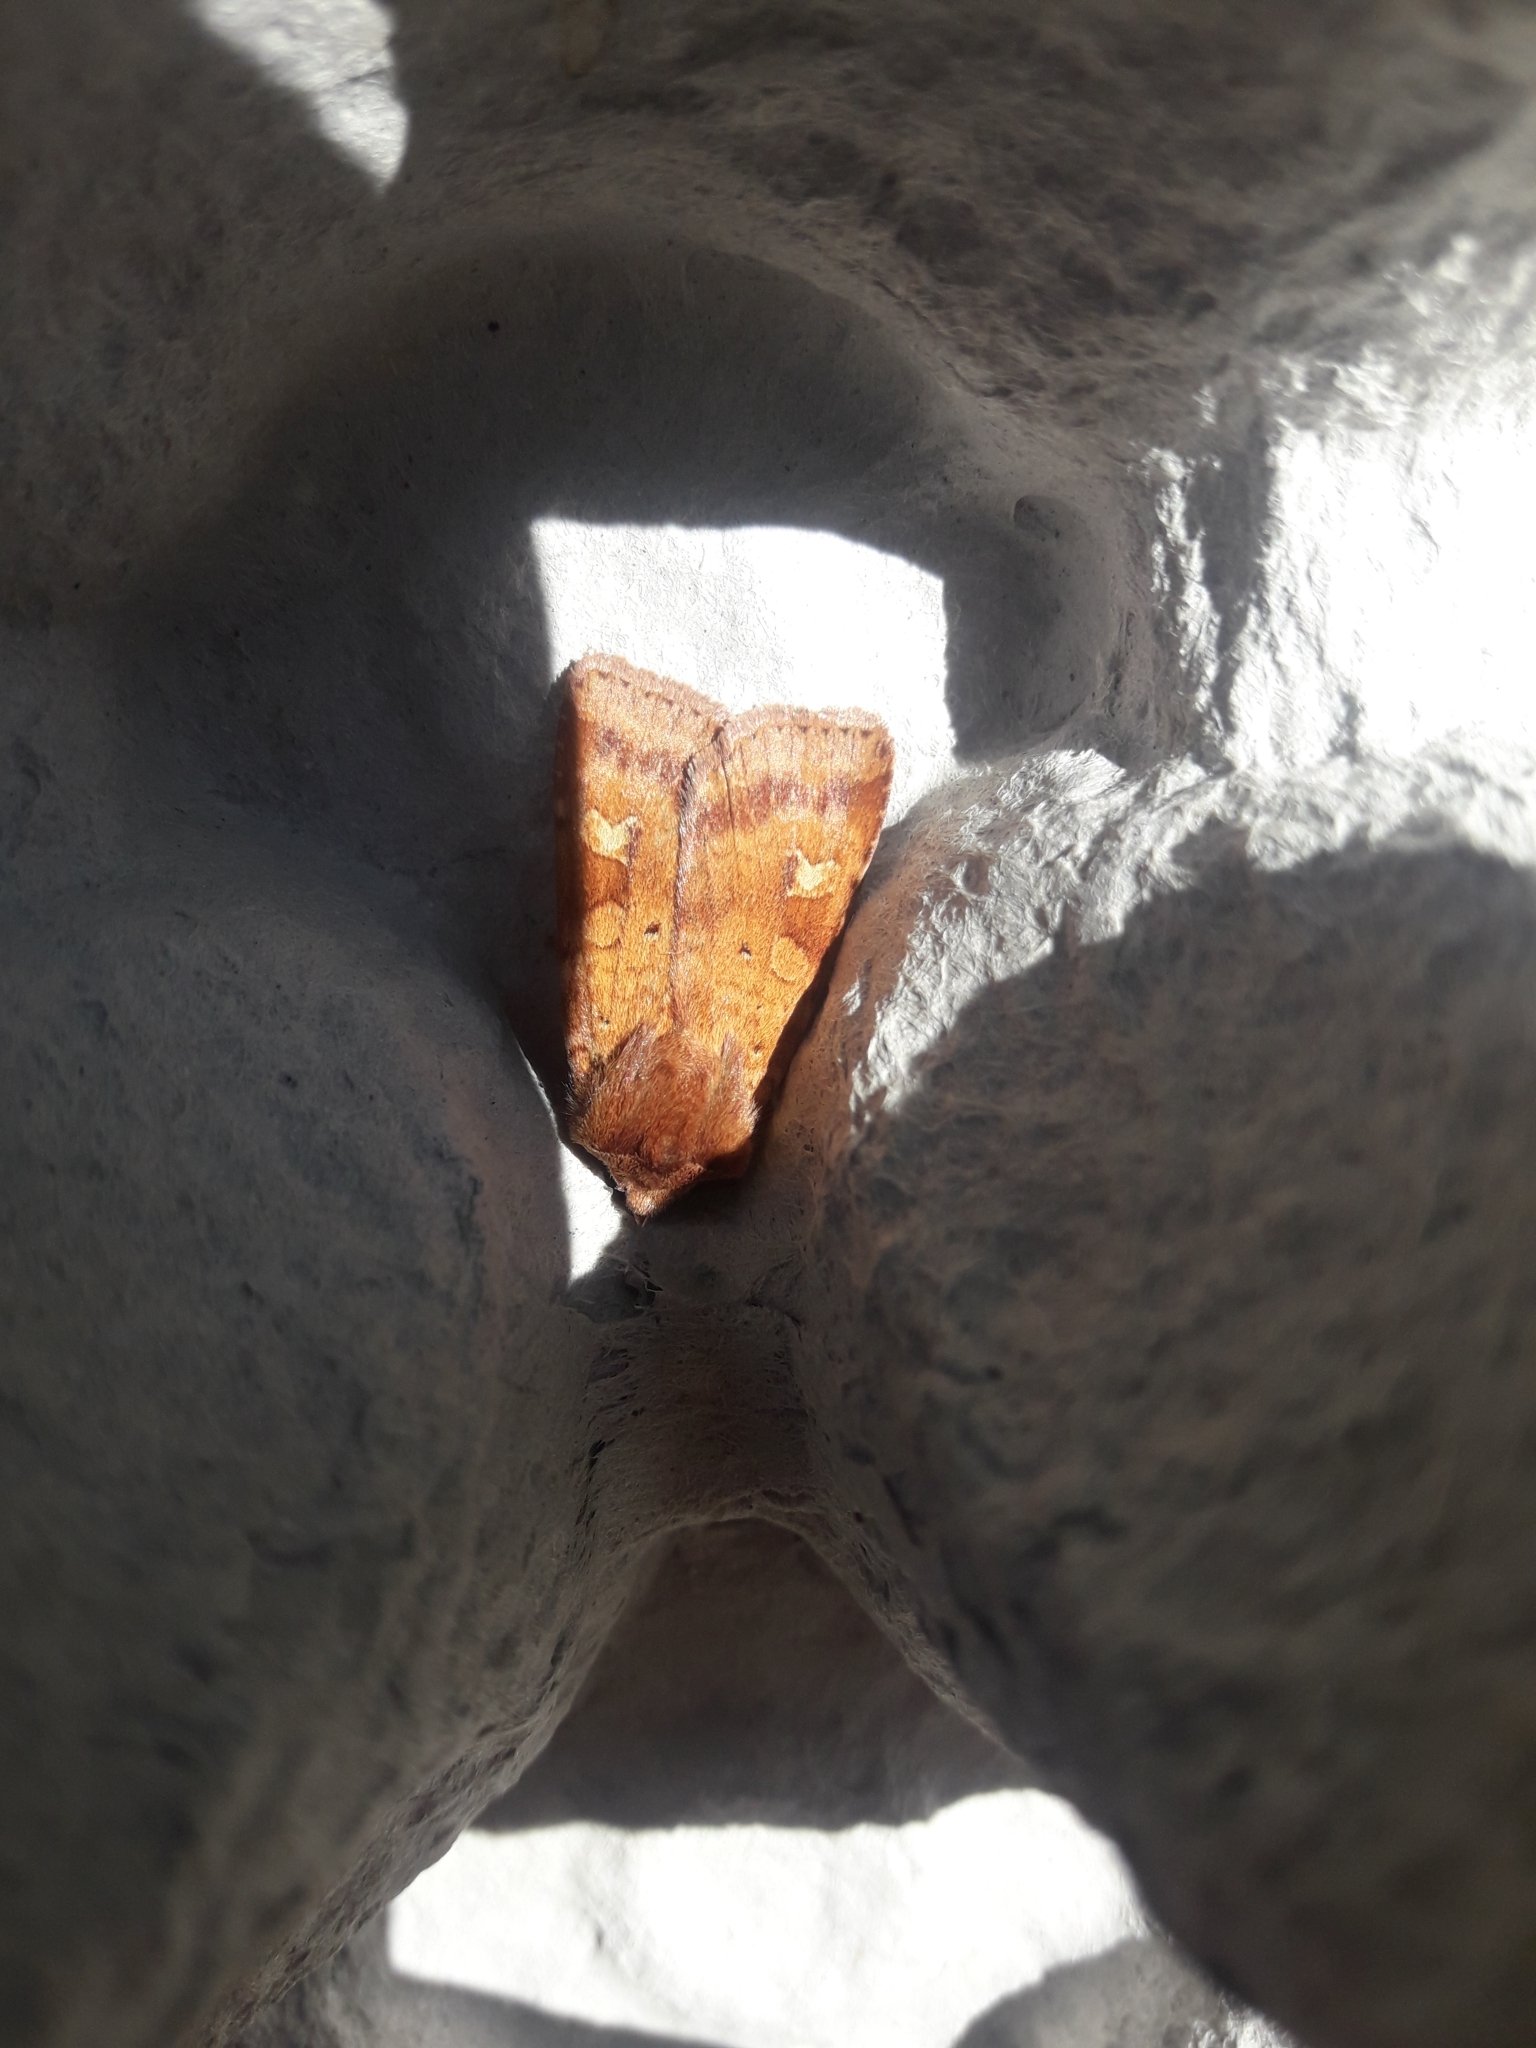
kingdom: Animalia
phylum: Arthropoda
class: Insecta
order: Lepidoptera
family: Noctuidae
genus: Diarsia
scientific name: Diarsia mendica
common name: Ingrailed clay
